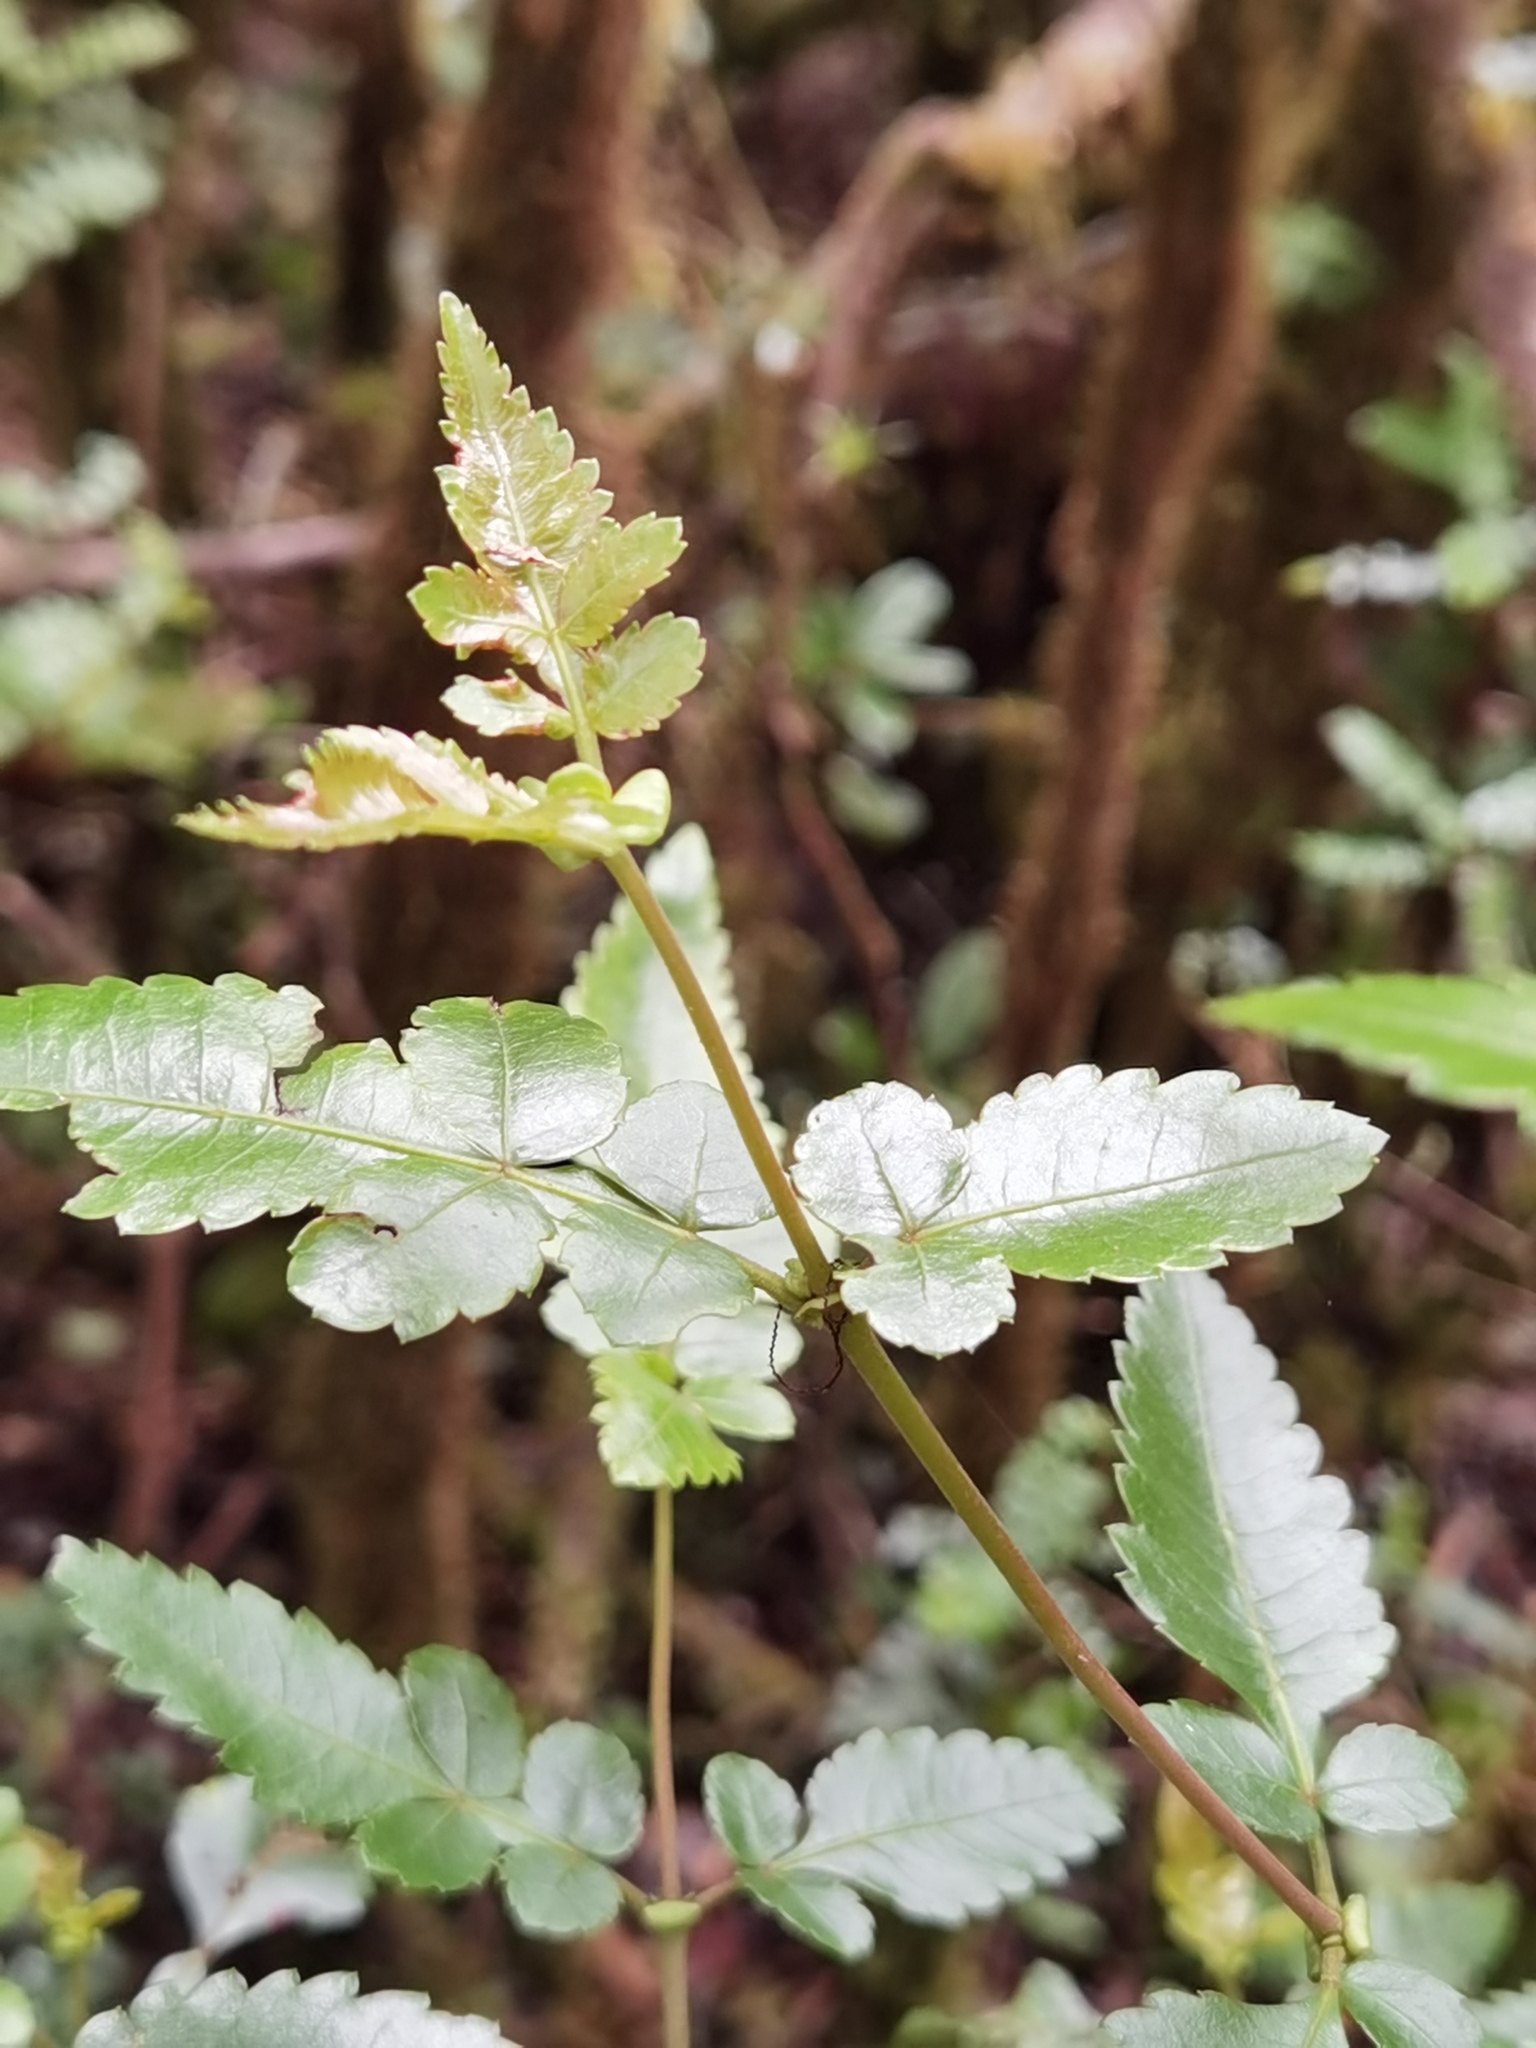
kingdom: Plantae
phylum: Tracheophyta
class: Magnoliopsida
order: Oxalidales
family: Cunoniaceae
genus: Weinmannia
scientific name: Weinmannia anisophylla
